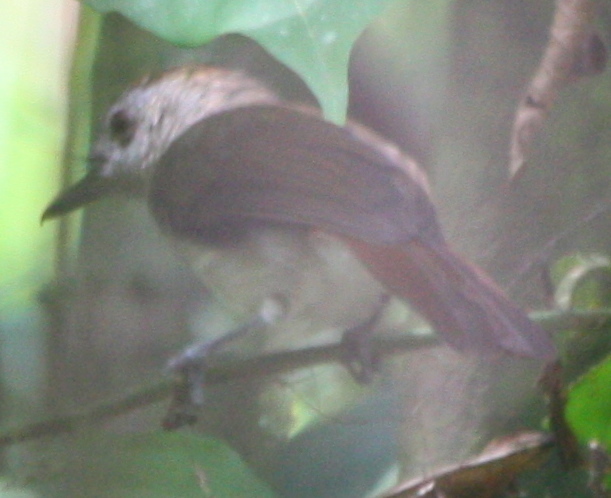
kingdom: Animalia
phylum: Chordata
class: Aves
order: Passeriformes
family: Pellorneidae
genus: Malacopteron
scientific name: Malacopteron magnum
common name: Rufous-crowned babbler
